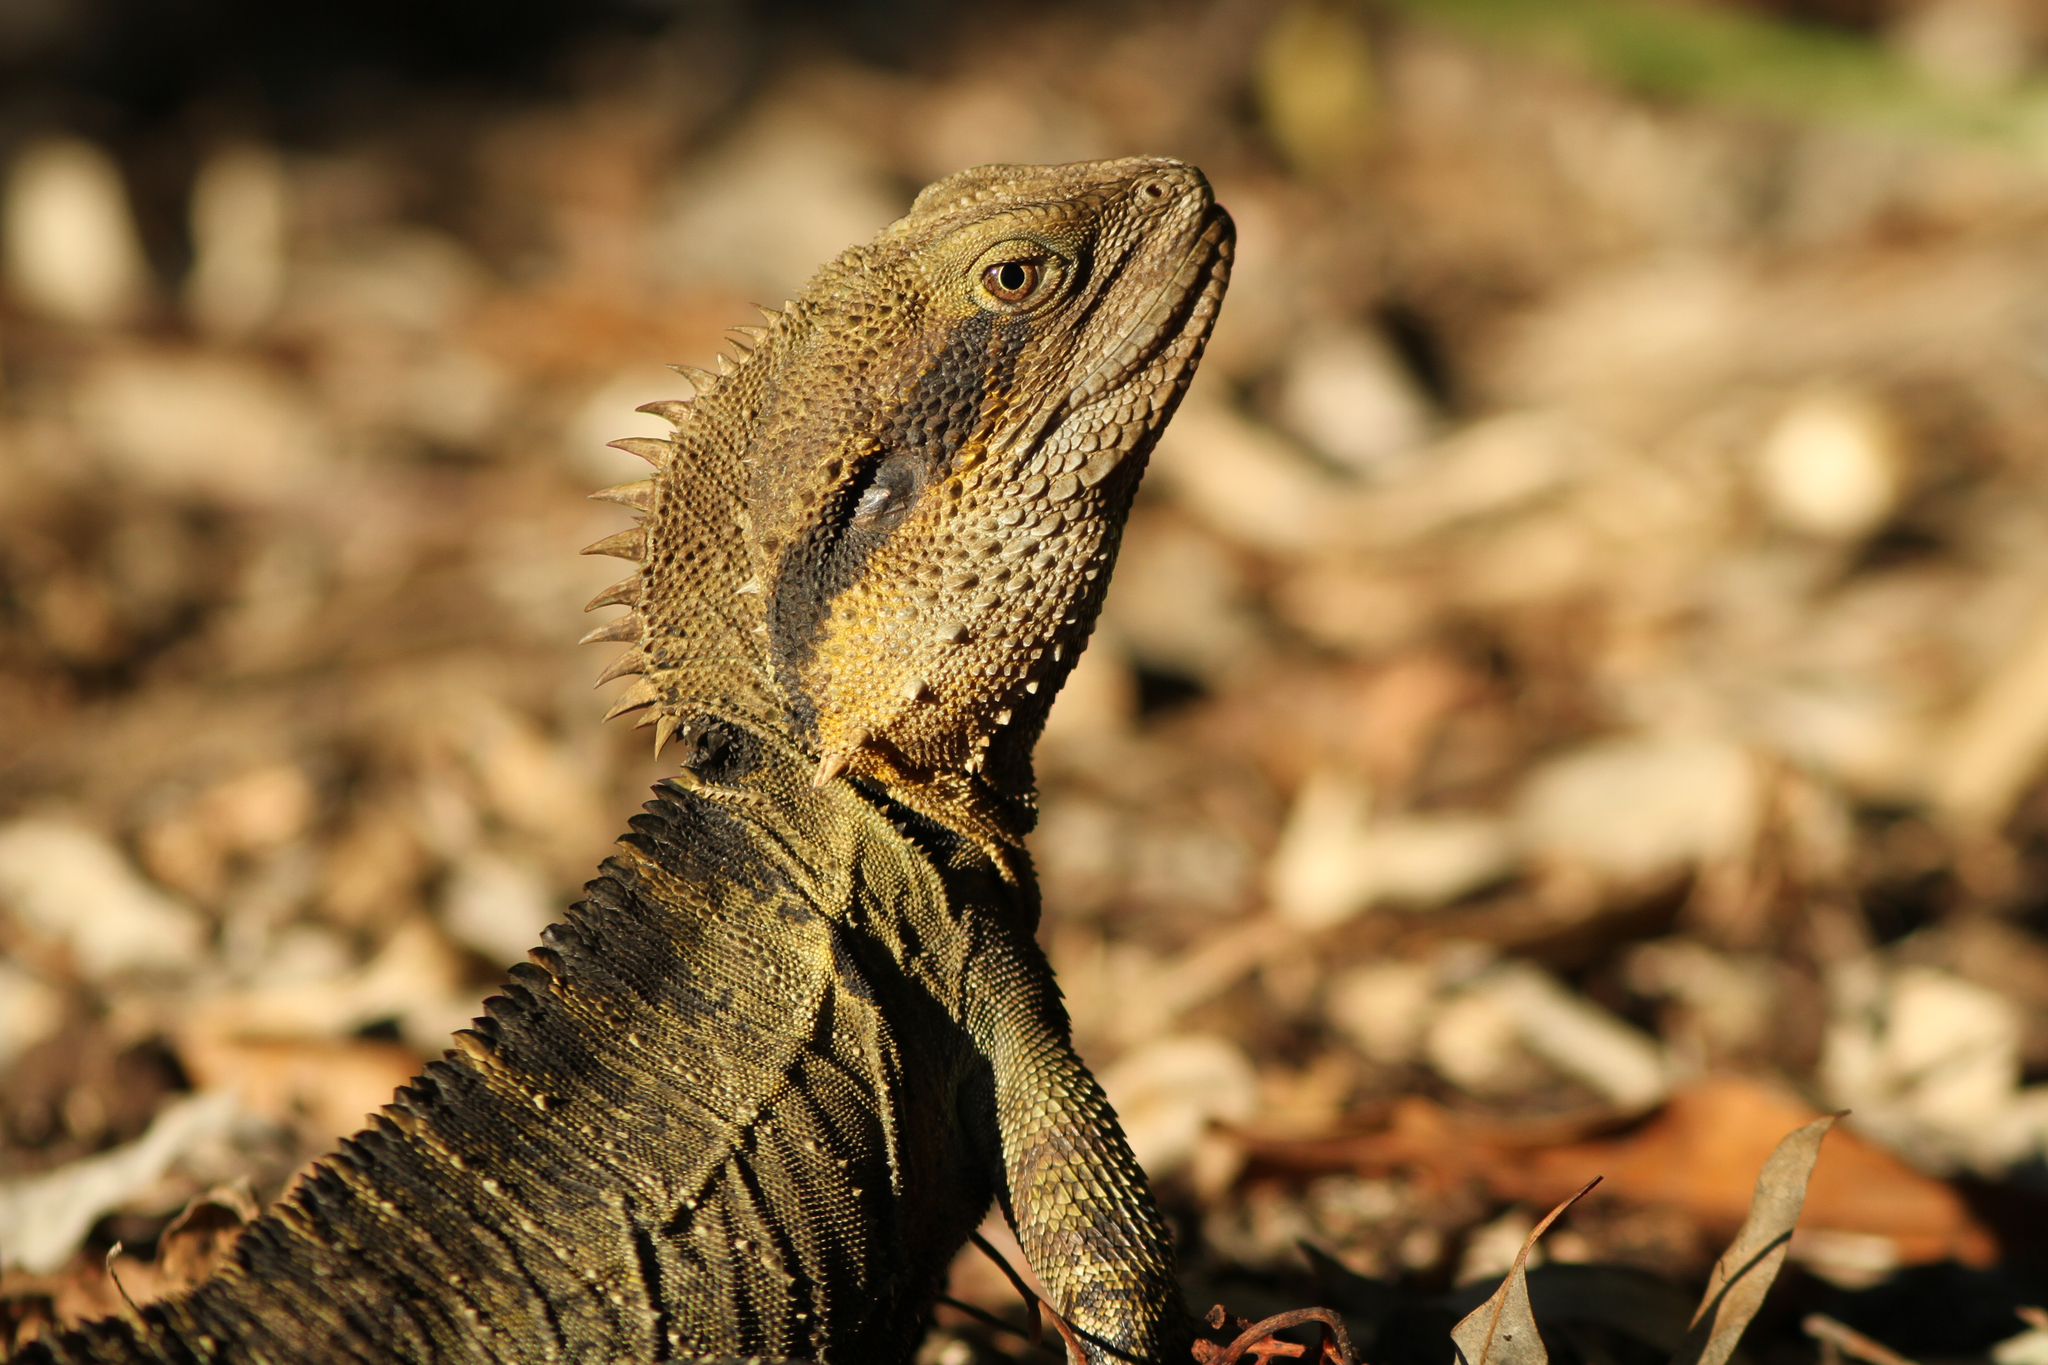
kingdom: Animalia
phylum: Chordata
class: Squamata
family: Agamidae
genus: Intellagama
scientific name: Intellagama lesueurii
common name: Eastern water dragon
